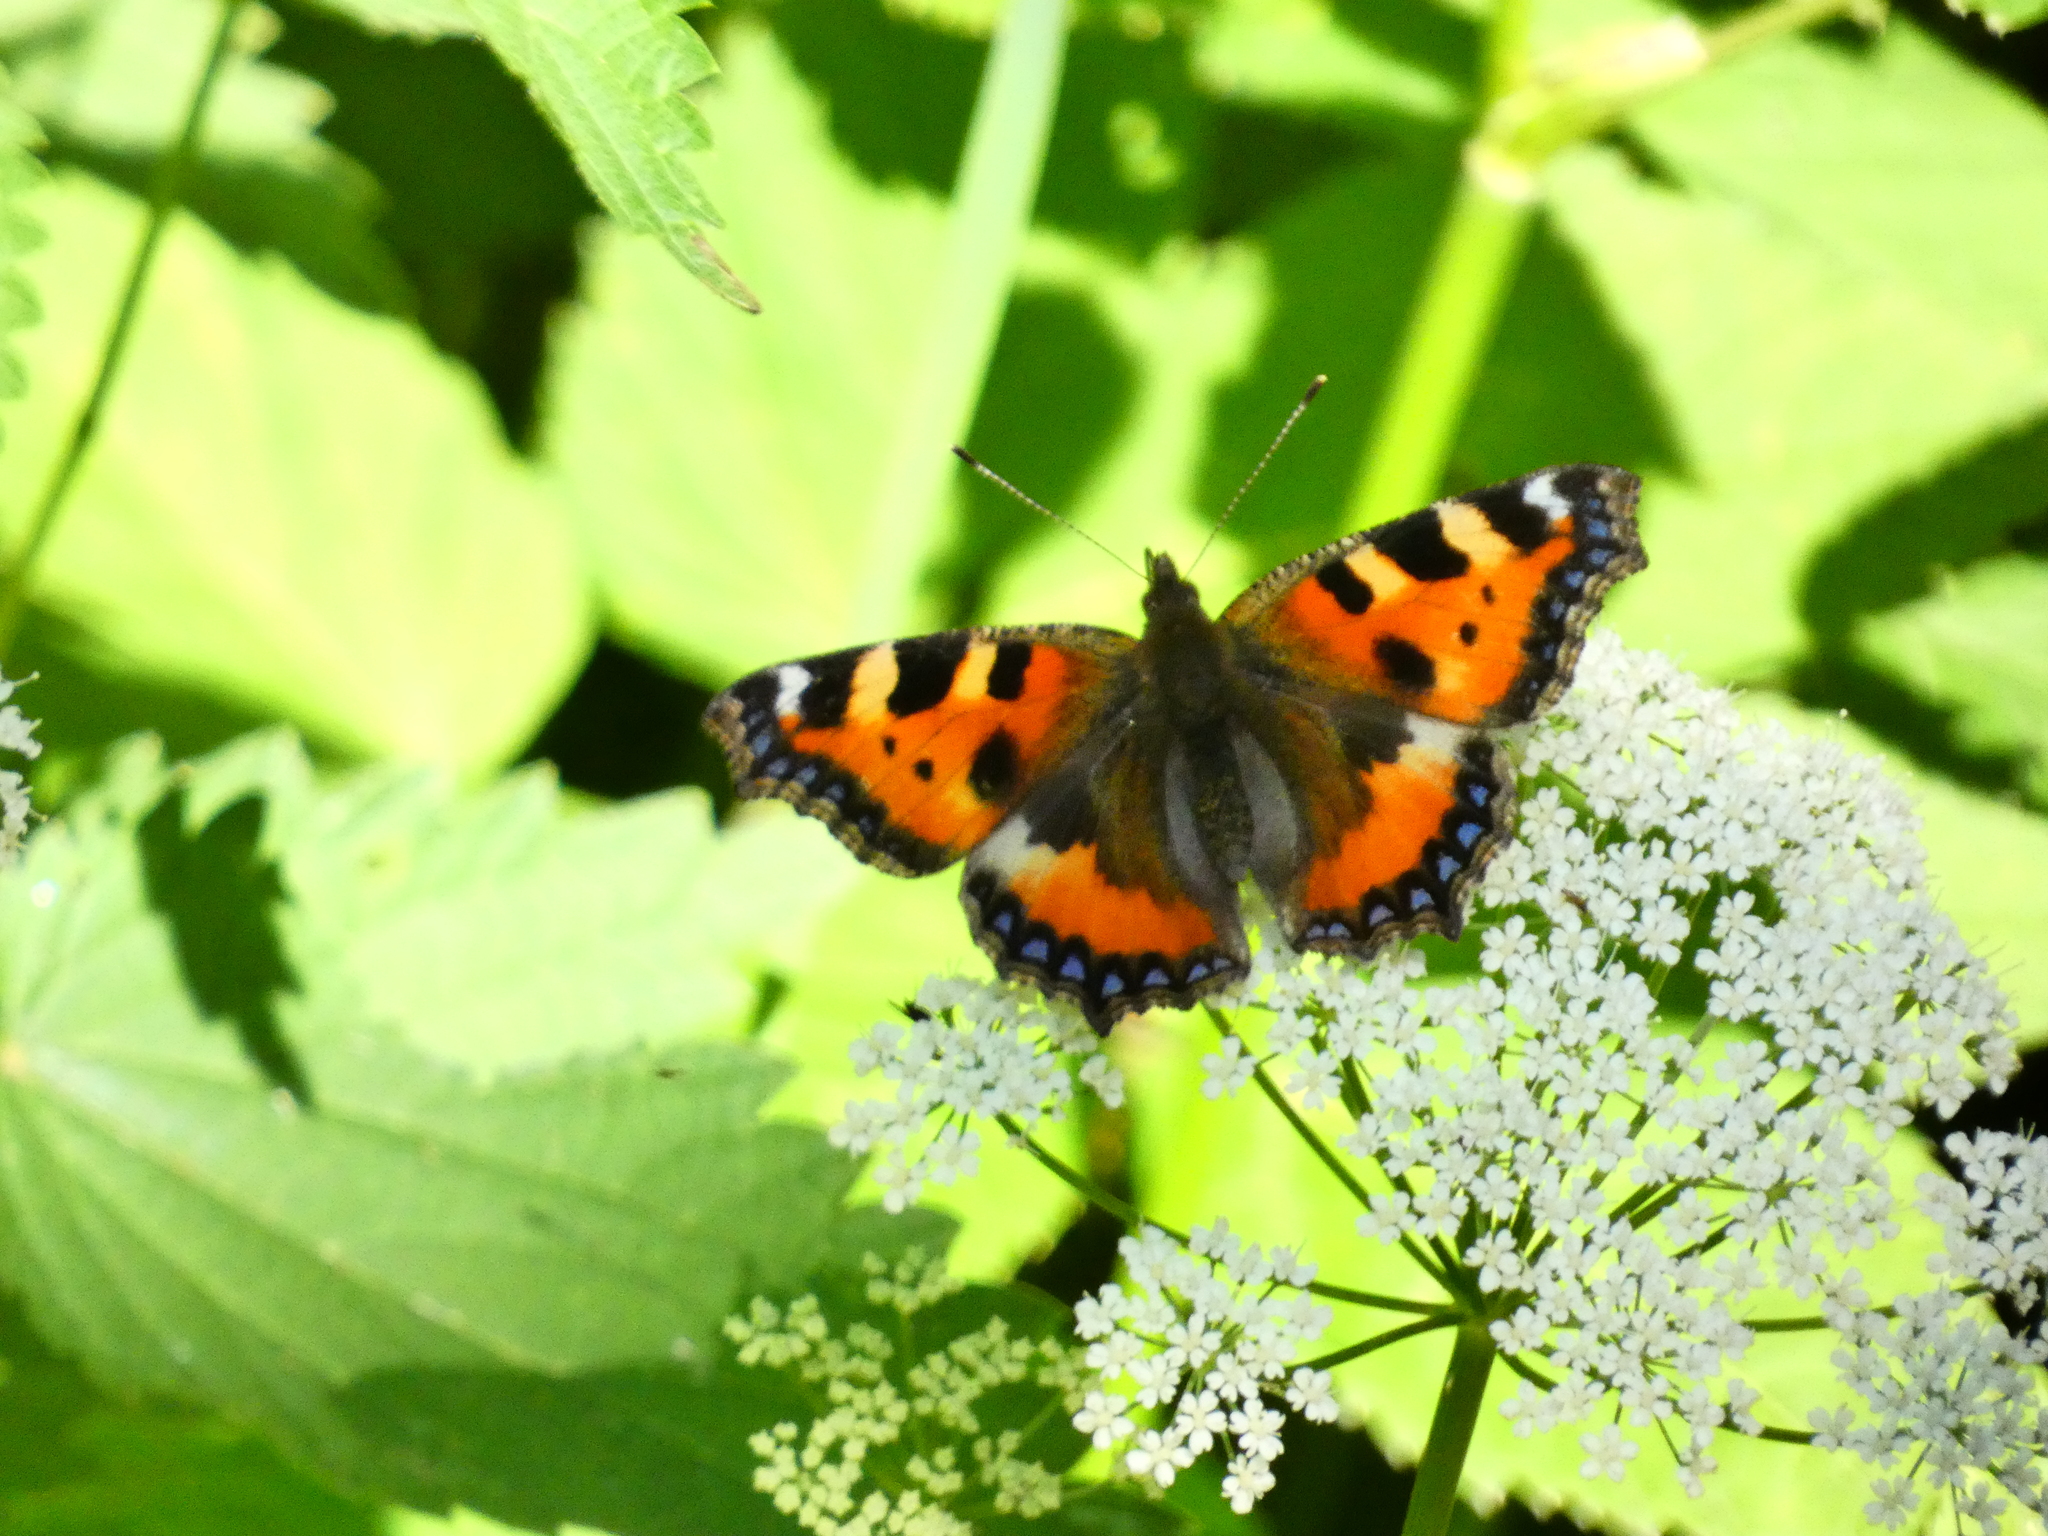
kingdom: Animalia
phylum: Arthropoda
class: Insecta
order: Lepidoptera
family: Nymphalidae
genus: Aglais
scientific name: Aglais urticae
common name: Small tortoiseshell
